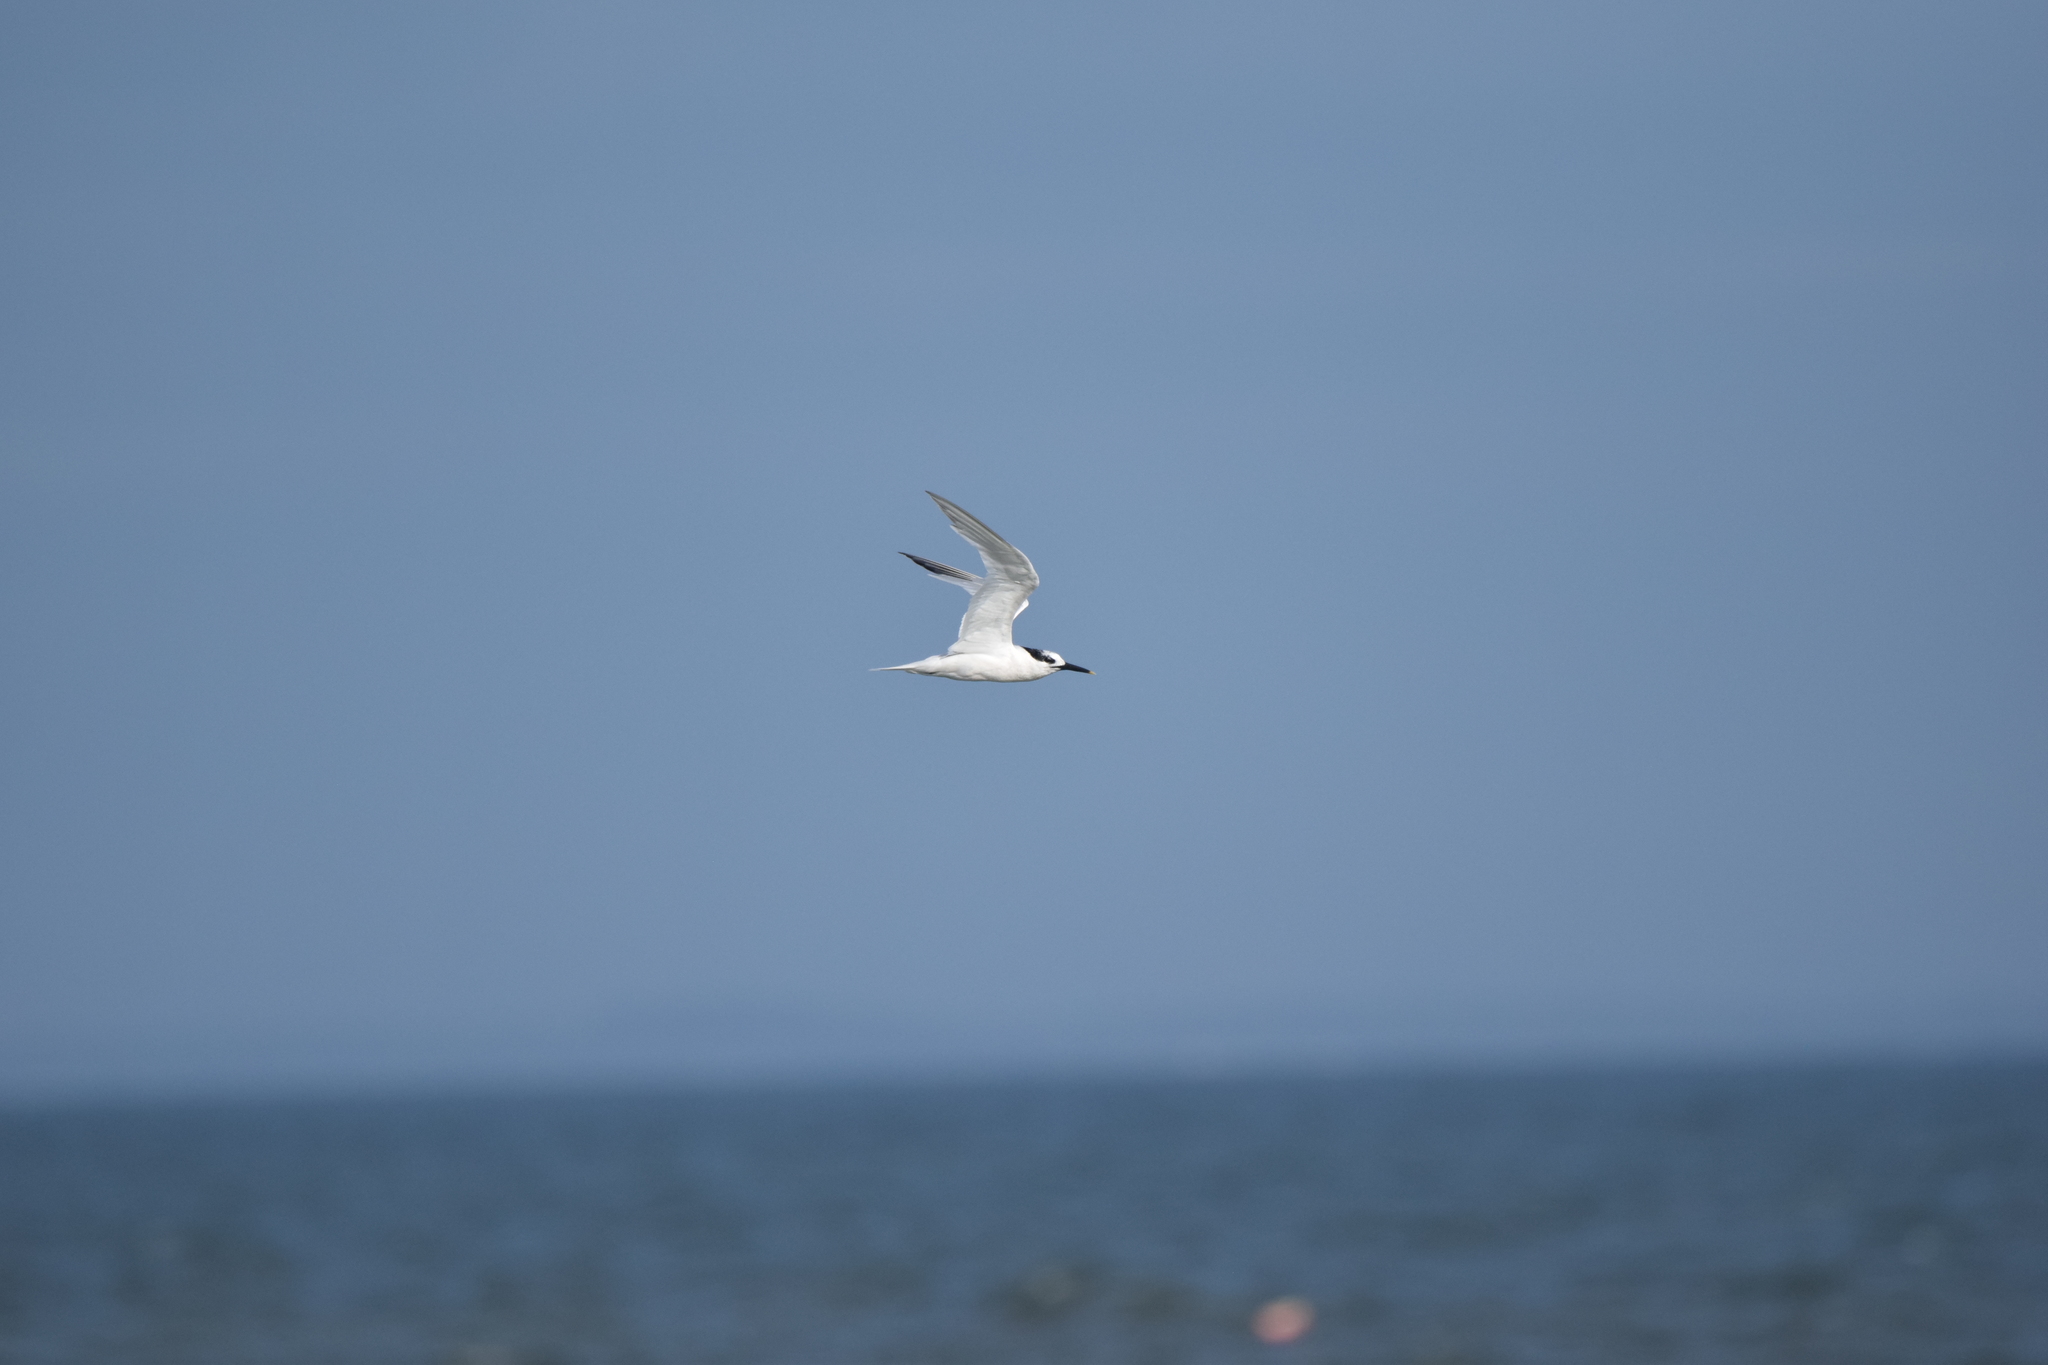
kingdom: Animalia
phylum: Chordata
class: Aves
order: Charadriiformes
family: Laridae
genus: Thalasseus
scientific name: Thalasseus sandvicensis
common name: Sandwich tern
